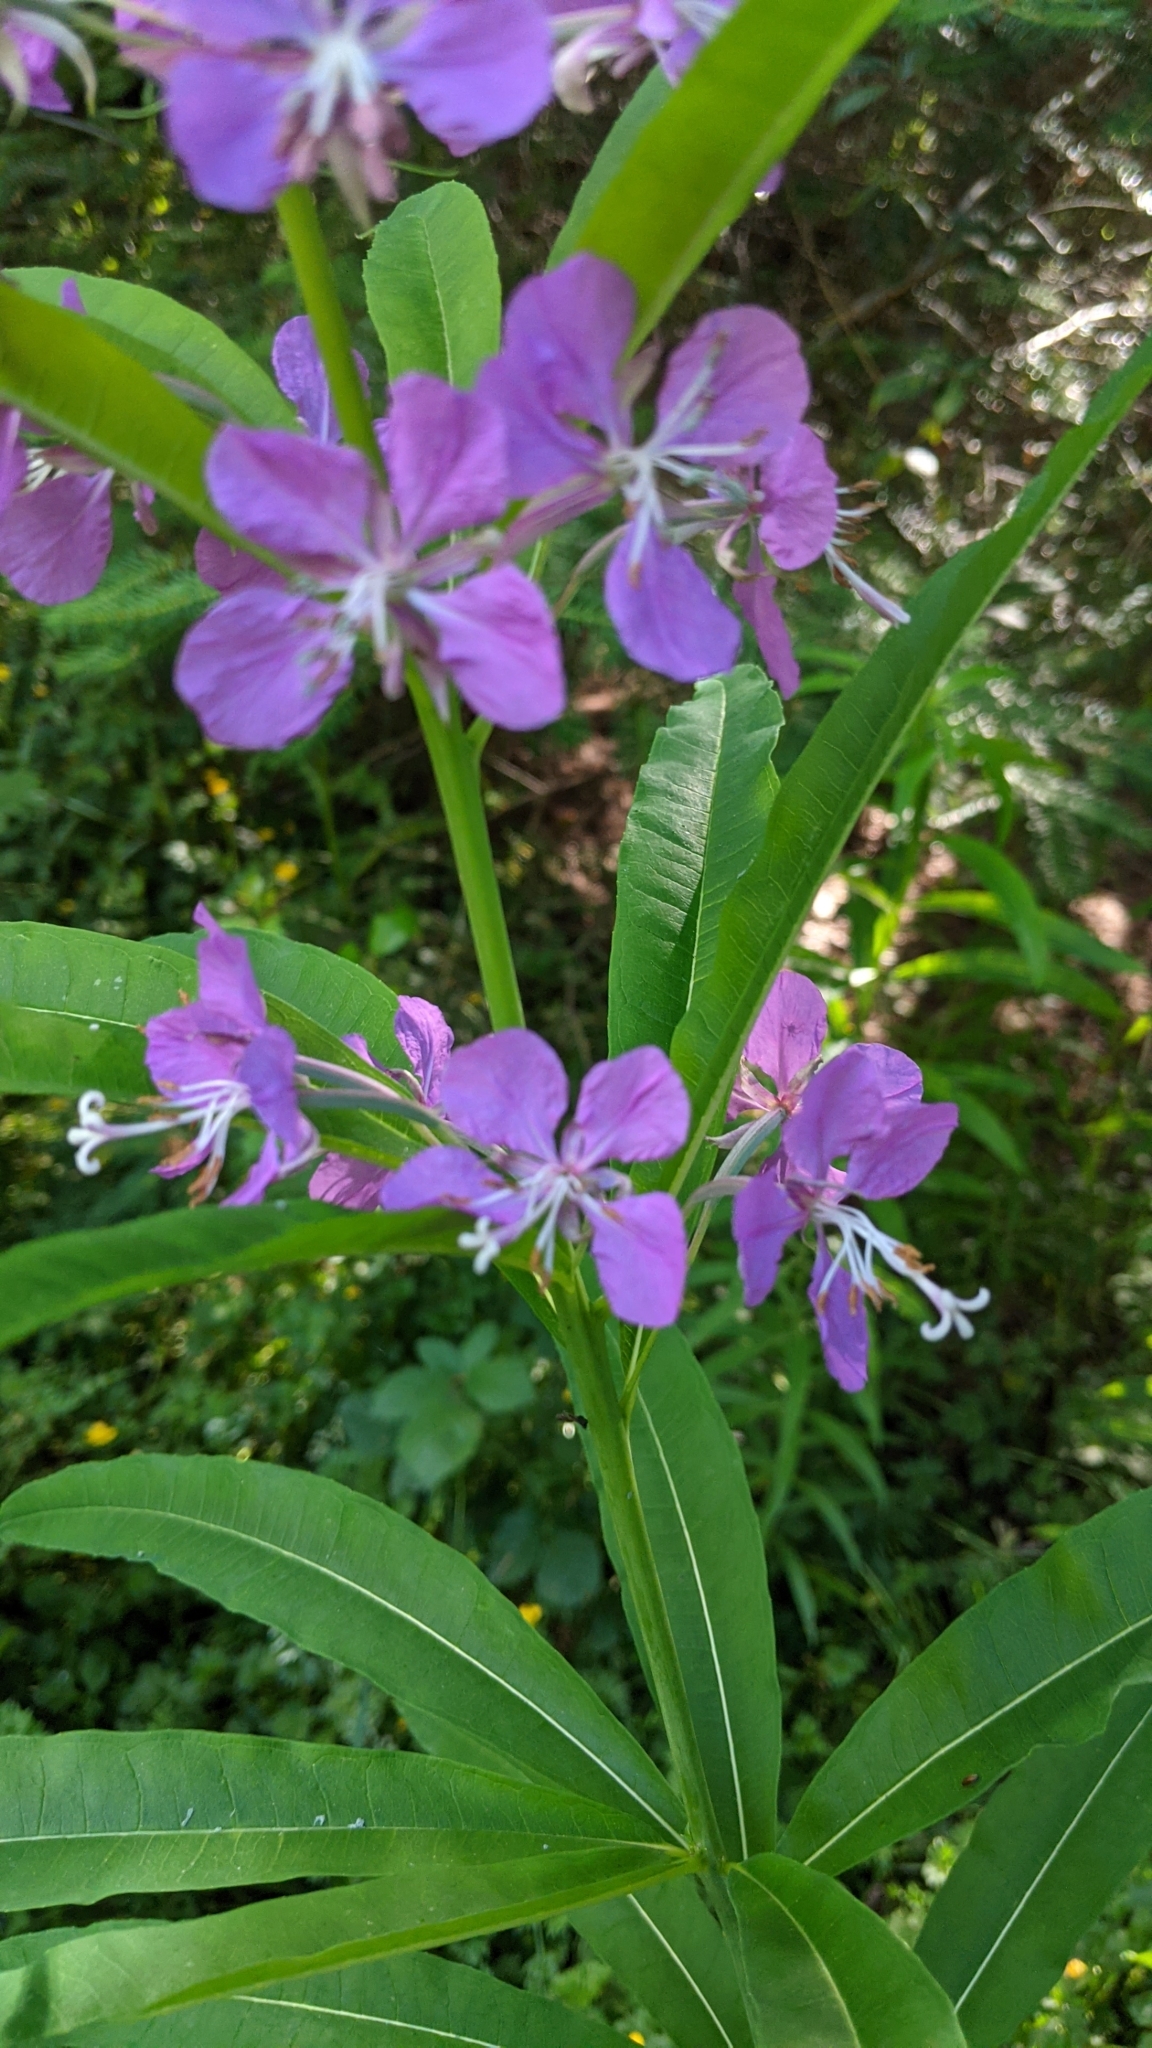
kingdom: Plantae
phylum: Tracheophyta
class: Magnoliopsida
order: Myrtales
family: Onagraceae
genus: Chamaenerion
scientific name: Chamaenerion angustifolium
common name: Fireweed
